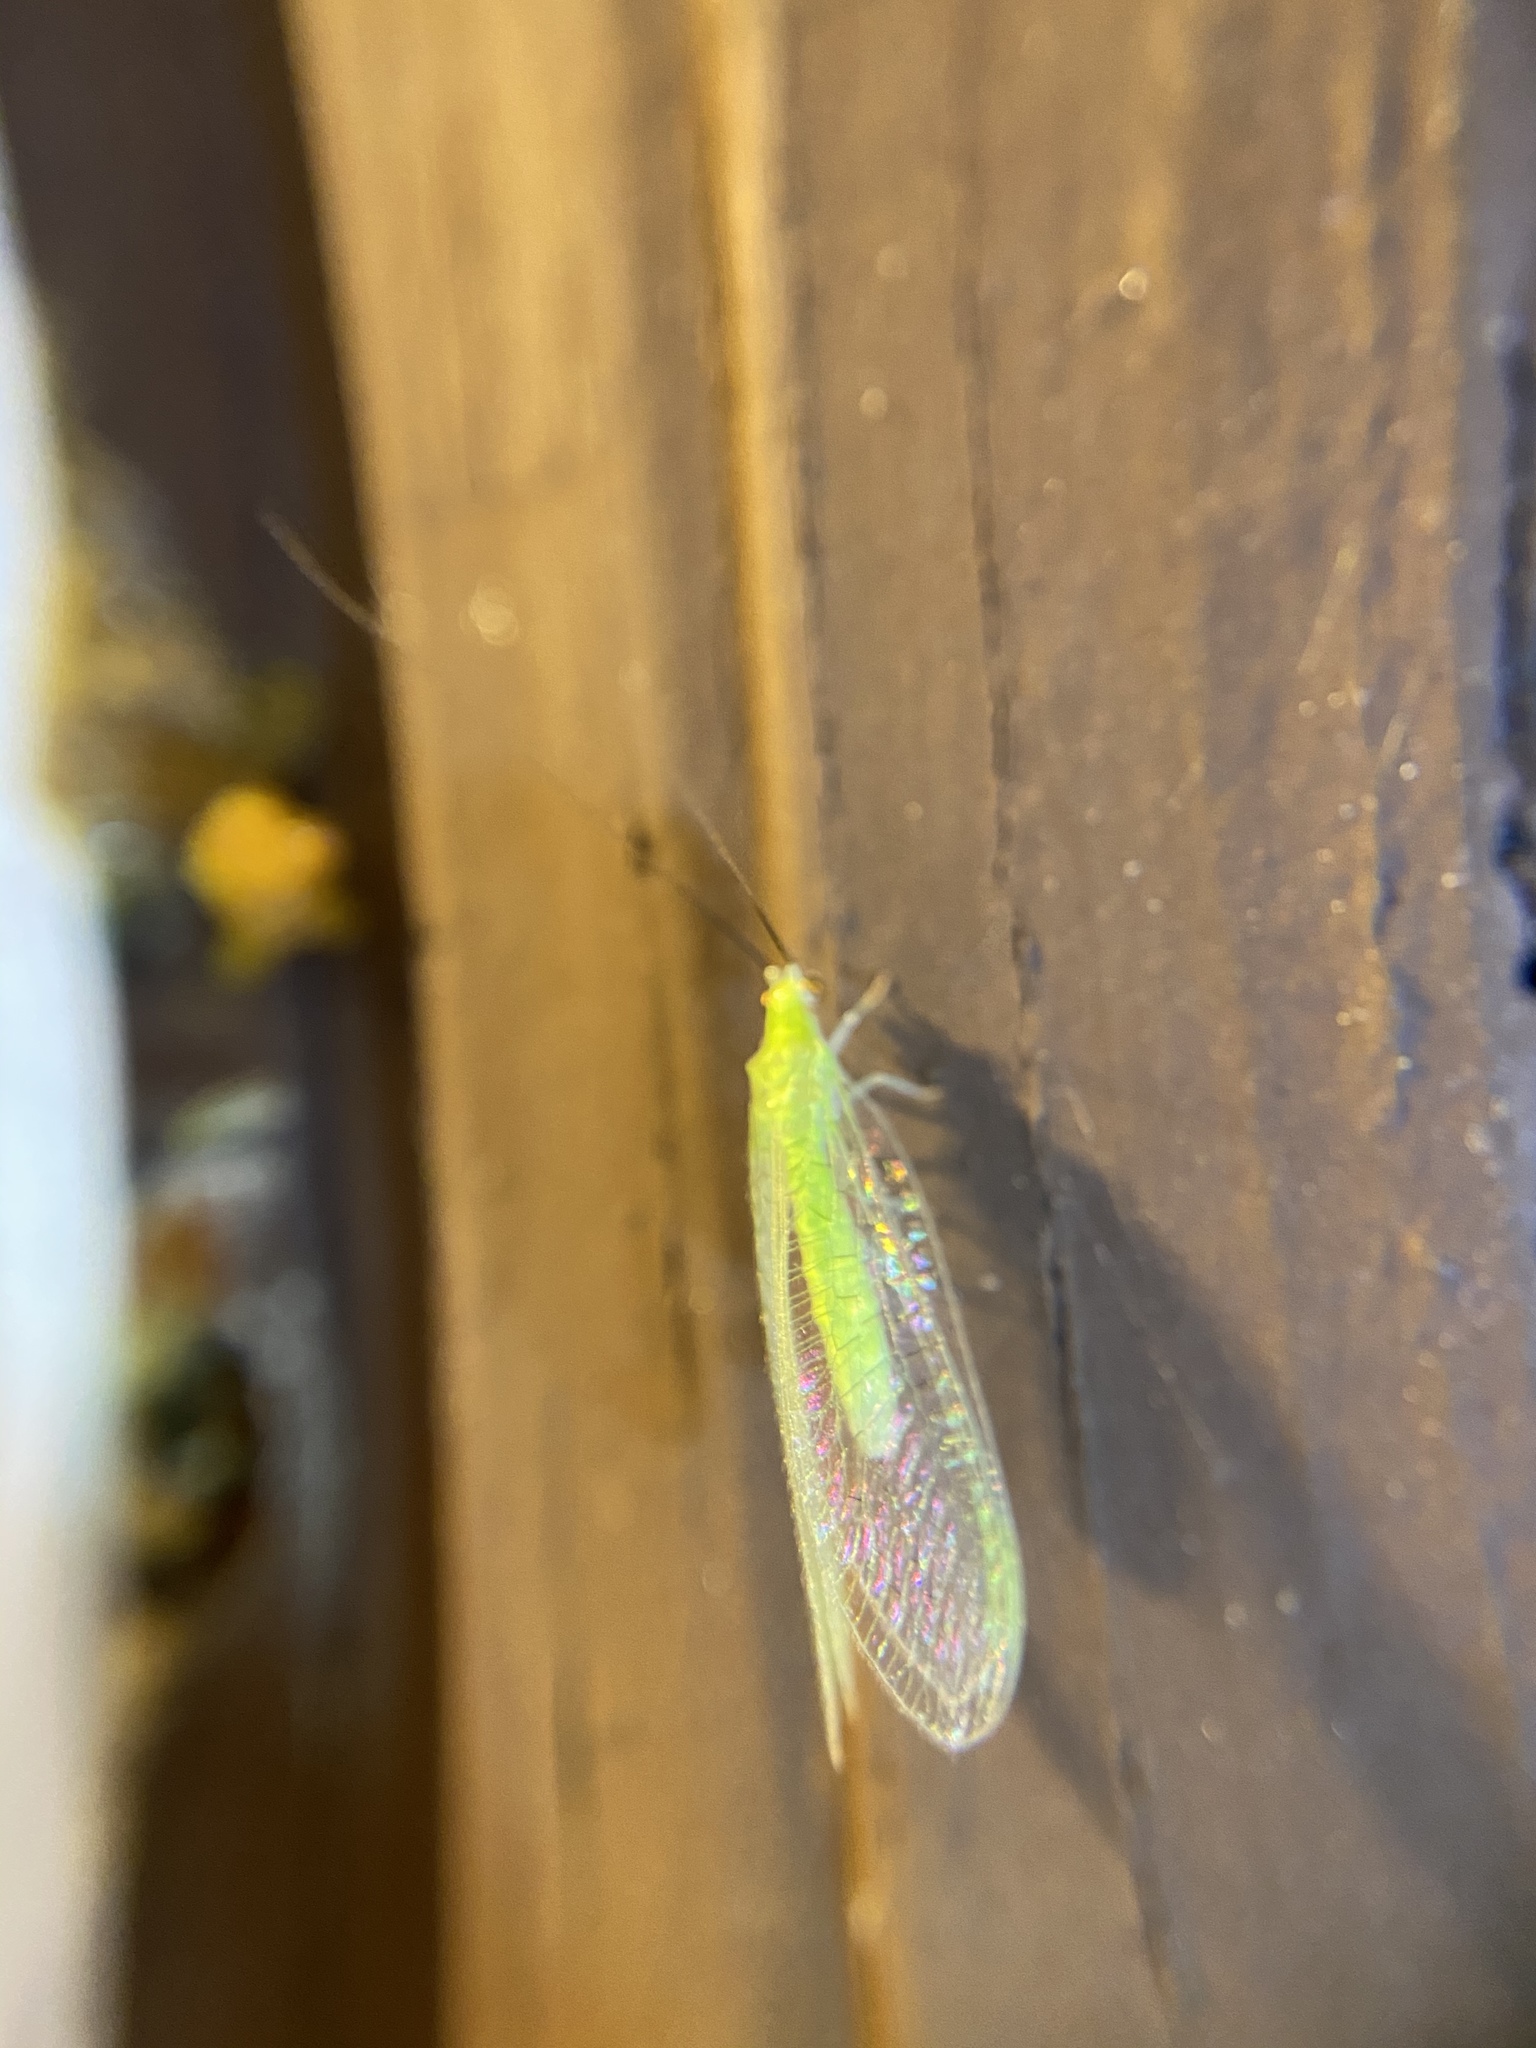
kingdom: Animalia
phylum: Arthropoda
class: Insecta
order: Neuroptera
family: Chrysopidae
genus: Chrysopa
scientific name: Chrysopa nigricornis
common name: Black-horned green lacewing
